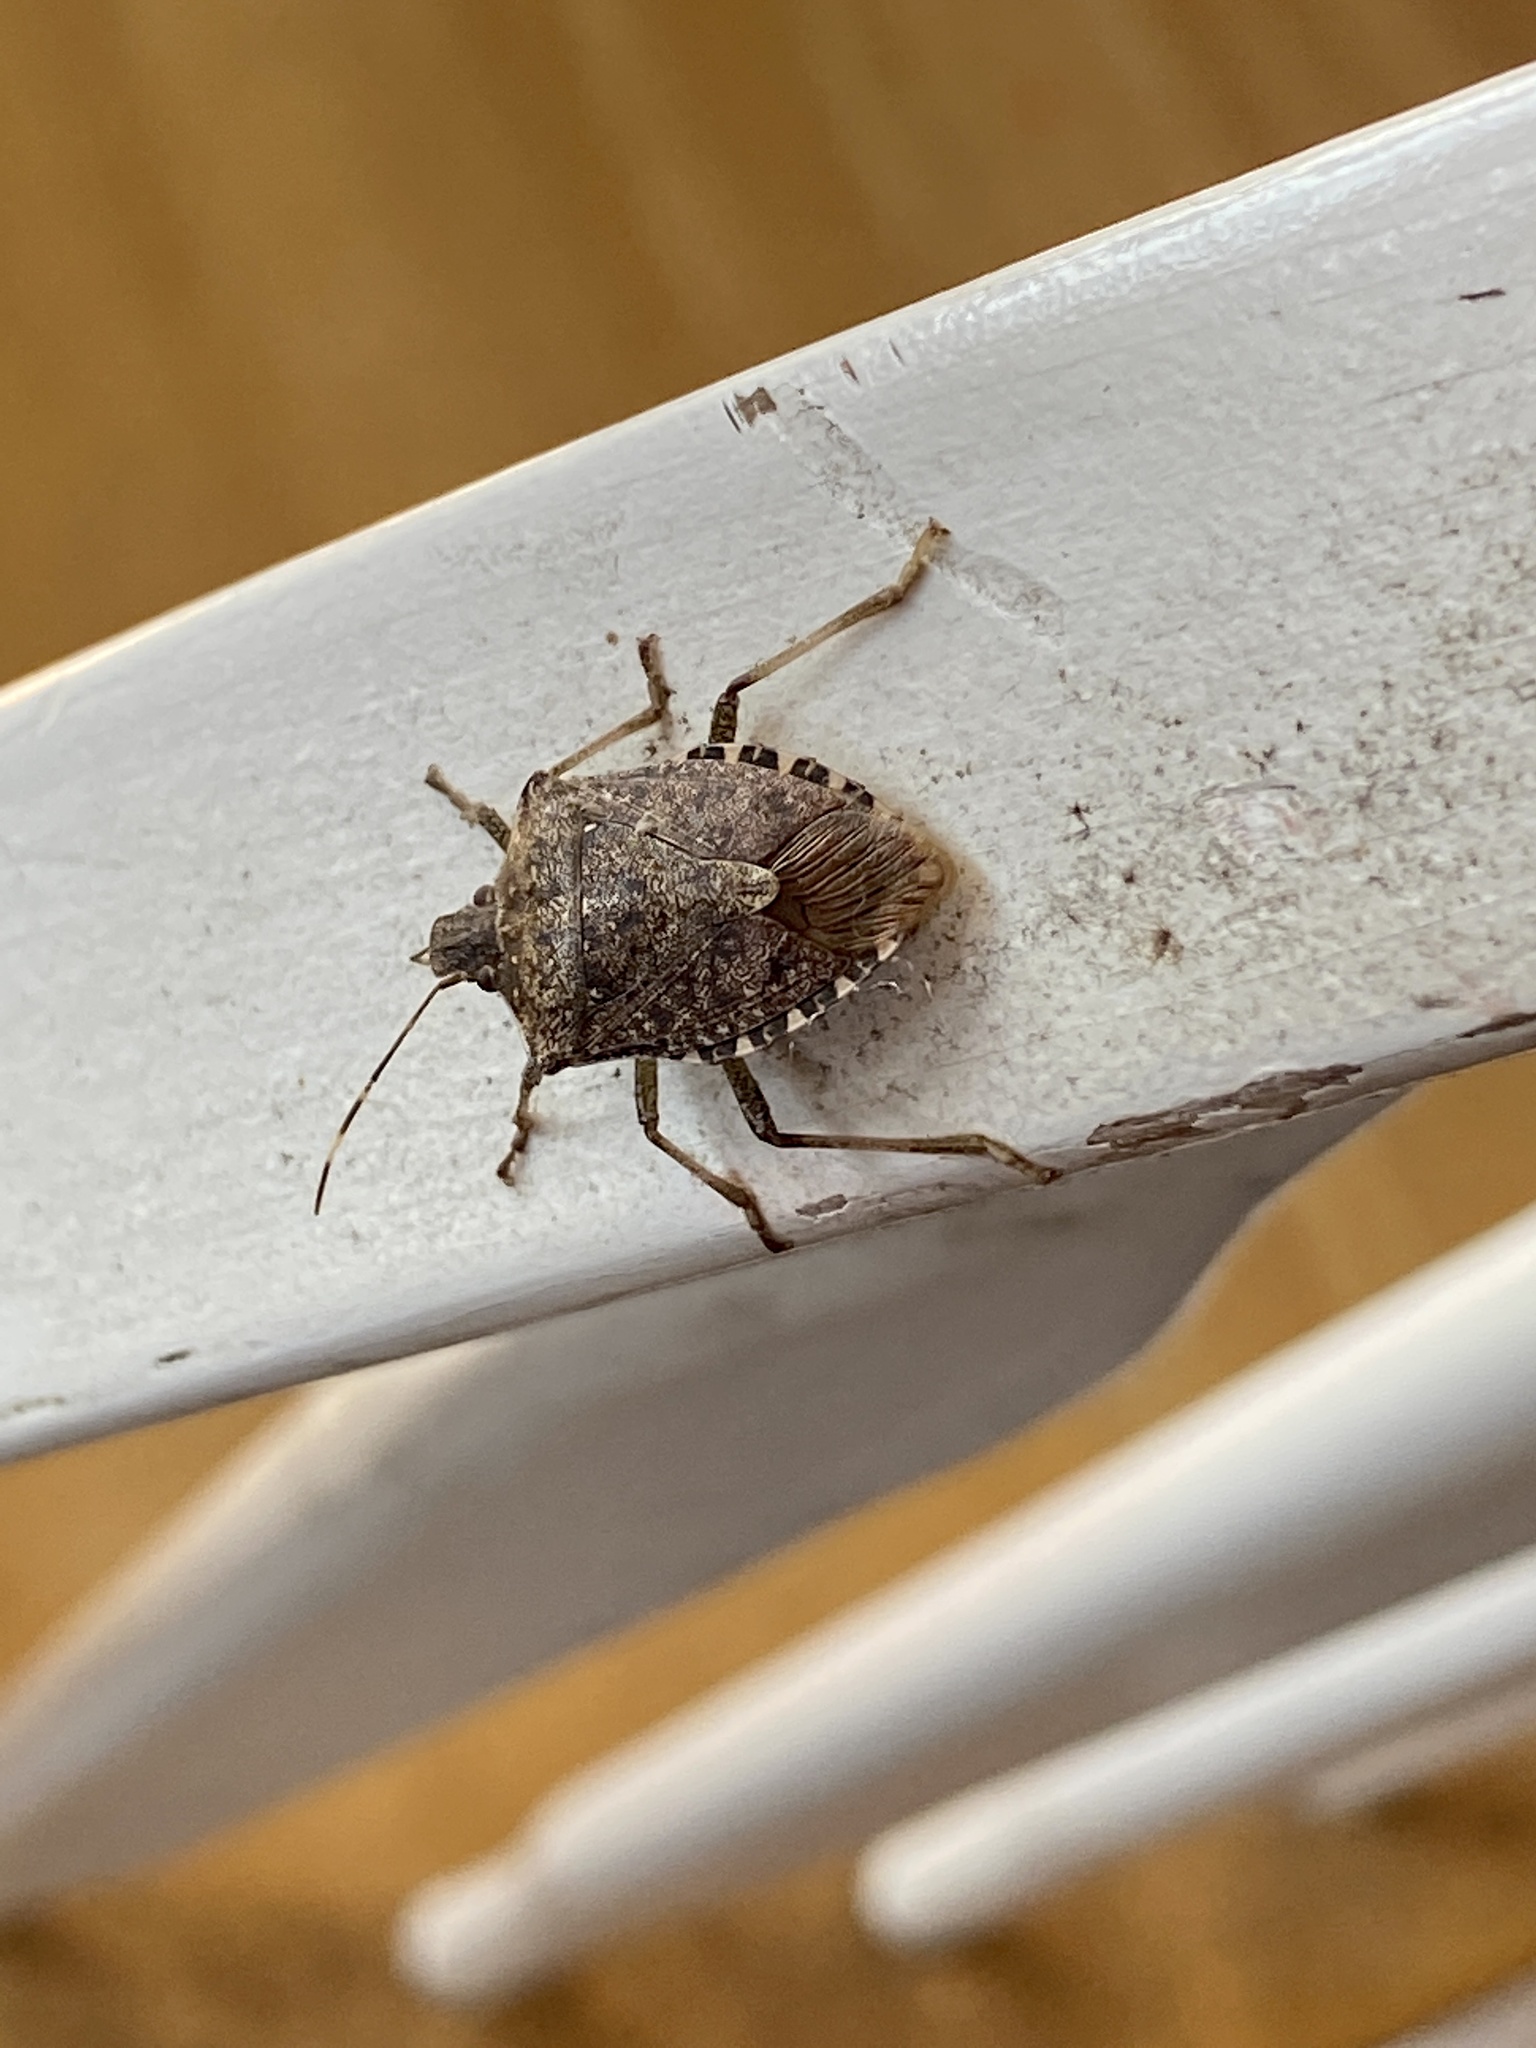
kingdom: Animalia
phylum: Arthropoda
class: Insecta
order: Hemiptera
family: Pentatomidae
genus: Halyomorpha
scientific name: Halyomorpha halys
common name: Brown marmorated stink bug
